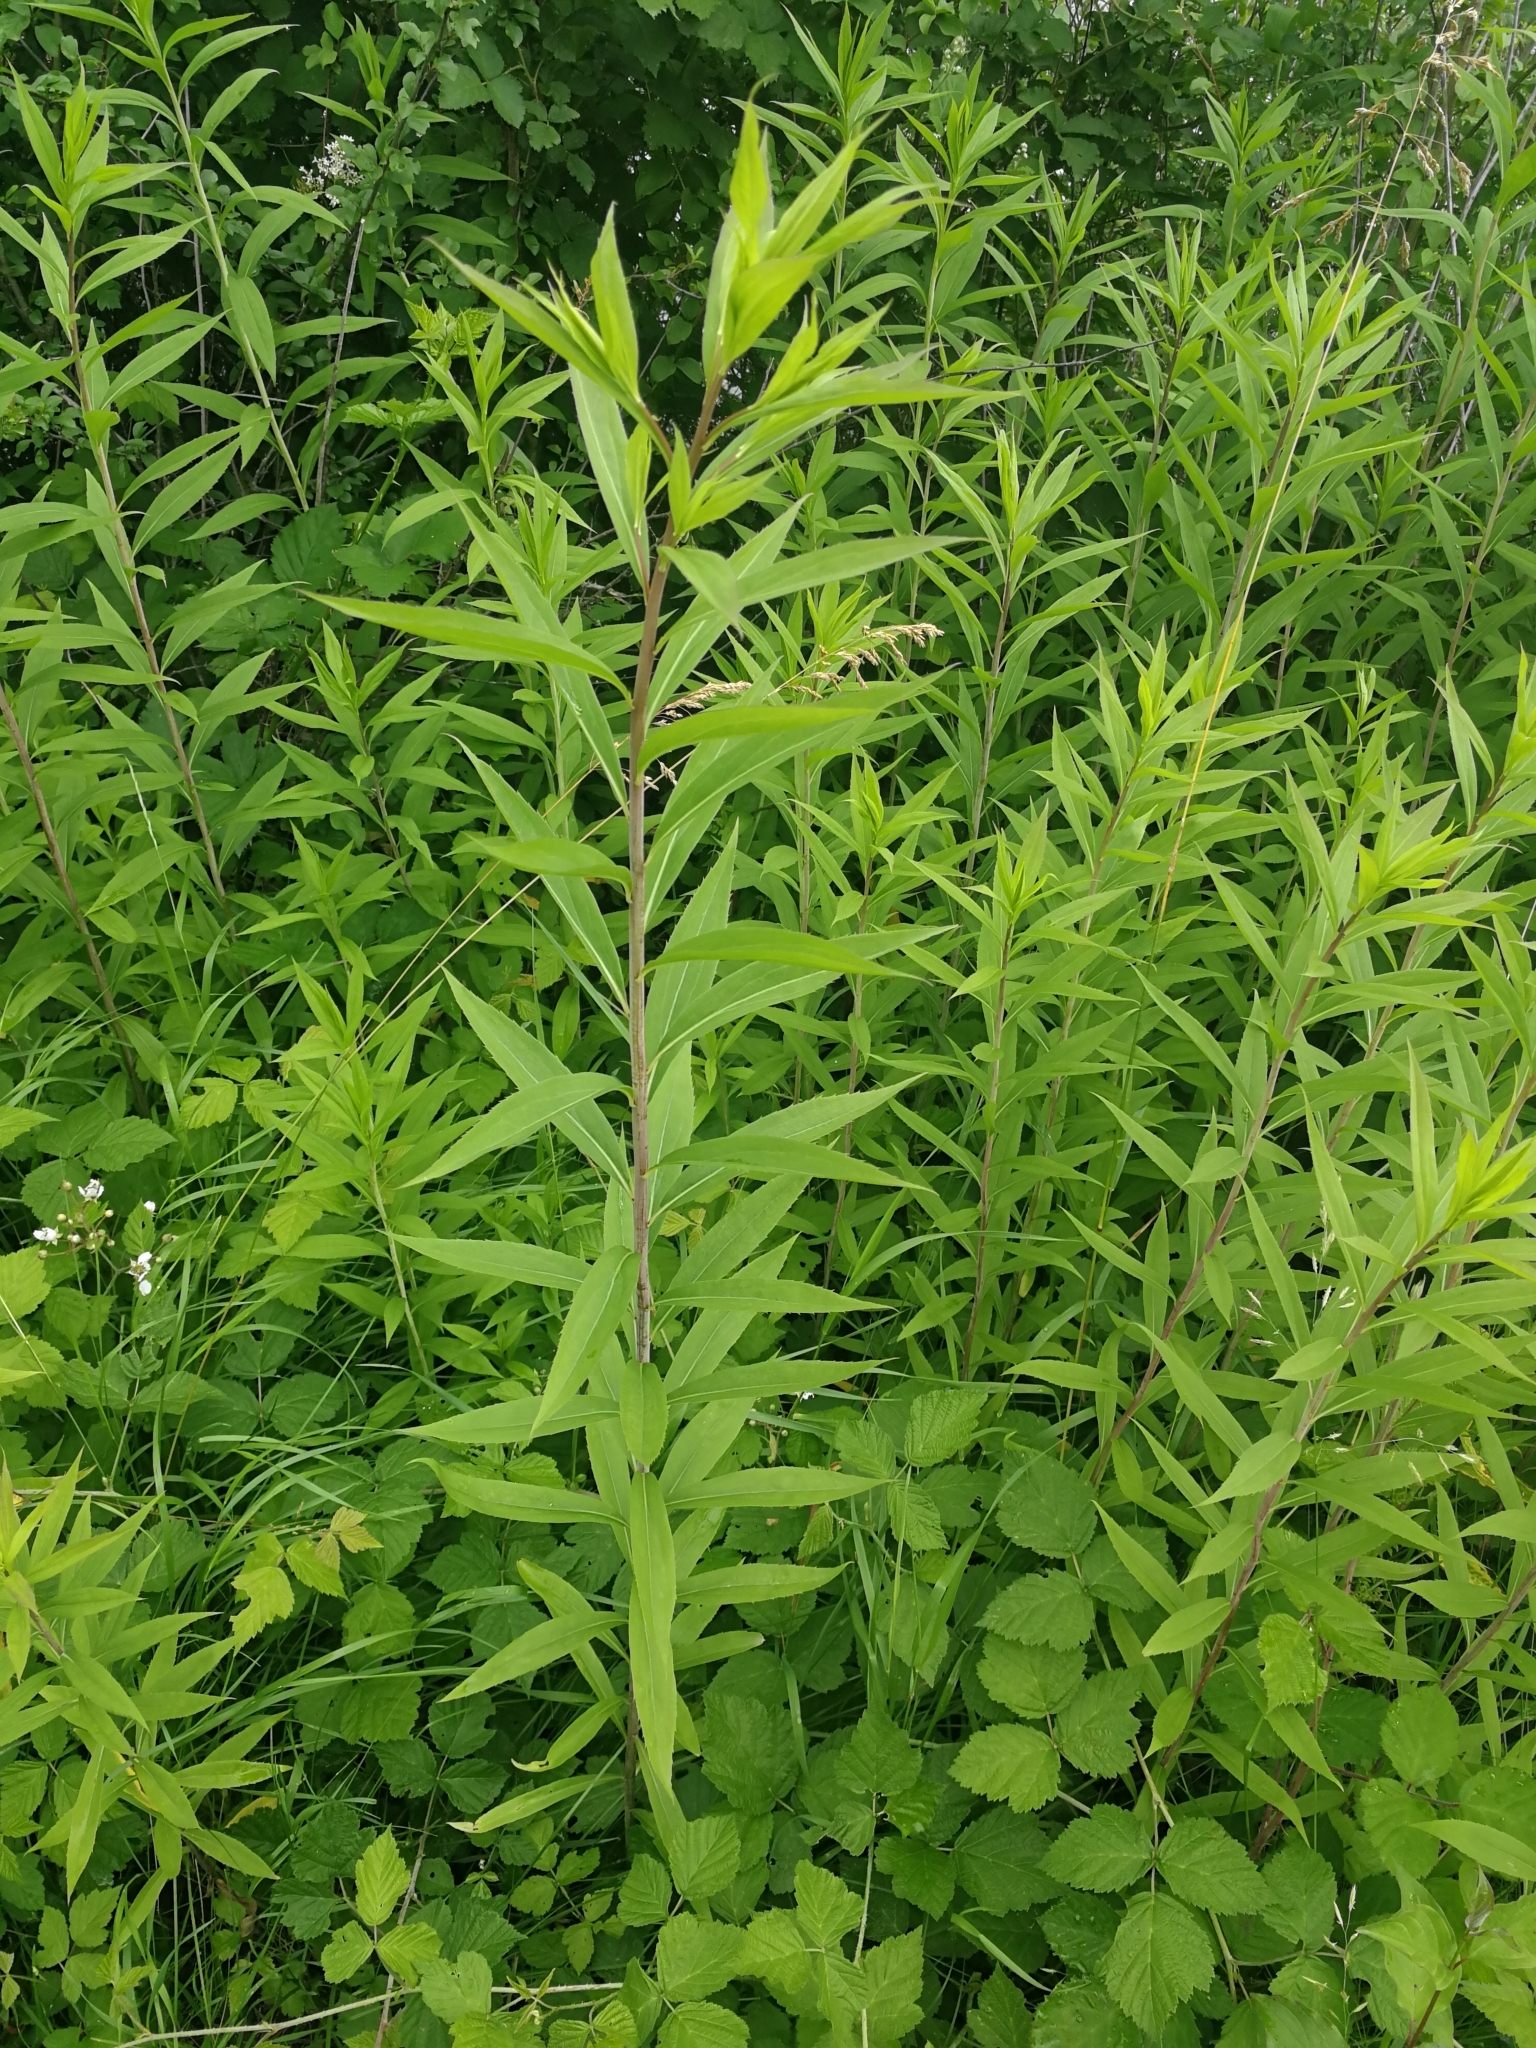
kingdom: Plantae
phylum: Tracheophyta
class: Magnoliopsida
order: Asterales
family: Asteraceae
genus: Solidago
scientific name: Solidago gigantea
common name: Giant goldenrod
